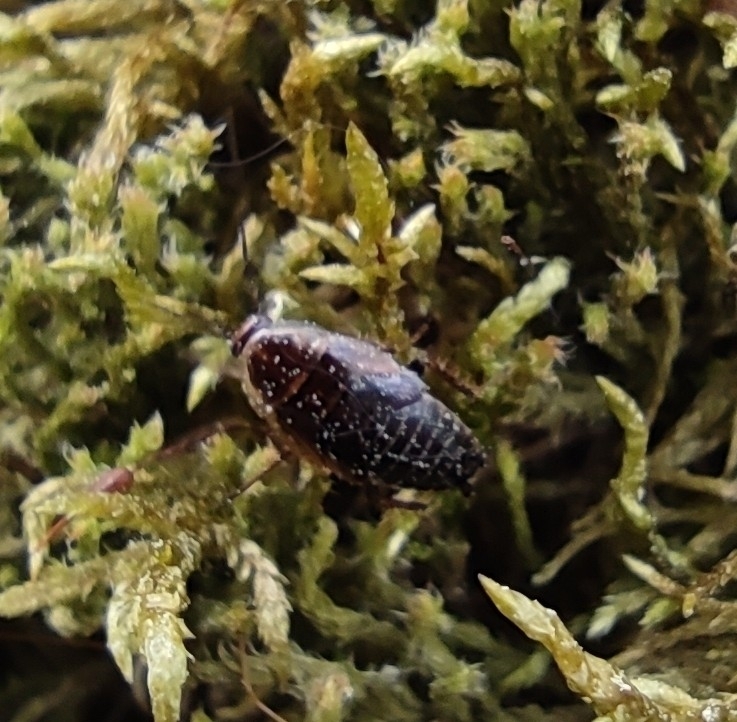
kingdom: Animalia
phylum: Arthropoda
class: Insecta
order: Blattodea
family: Ectobiidae
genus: Ectobius
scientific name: Ectobius sylvestris
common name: Forest cockroach
